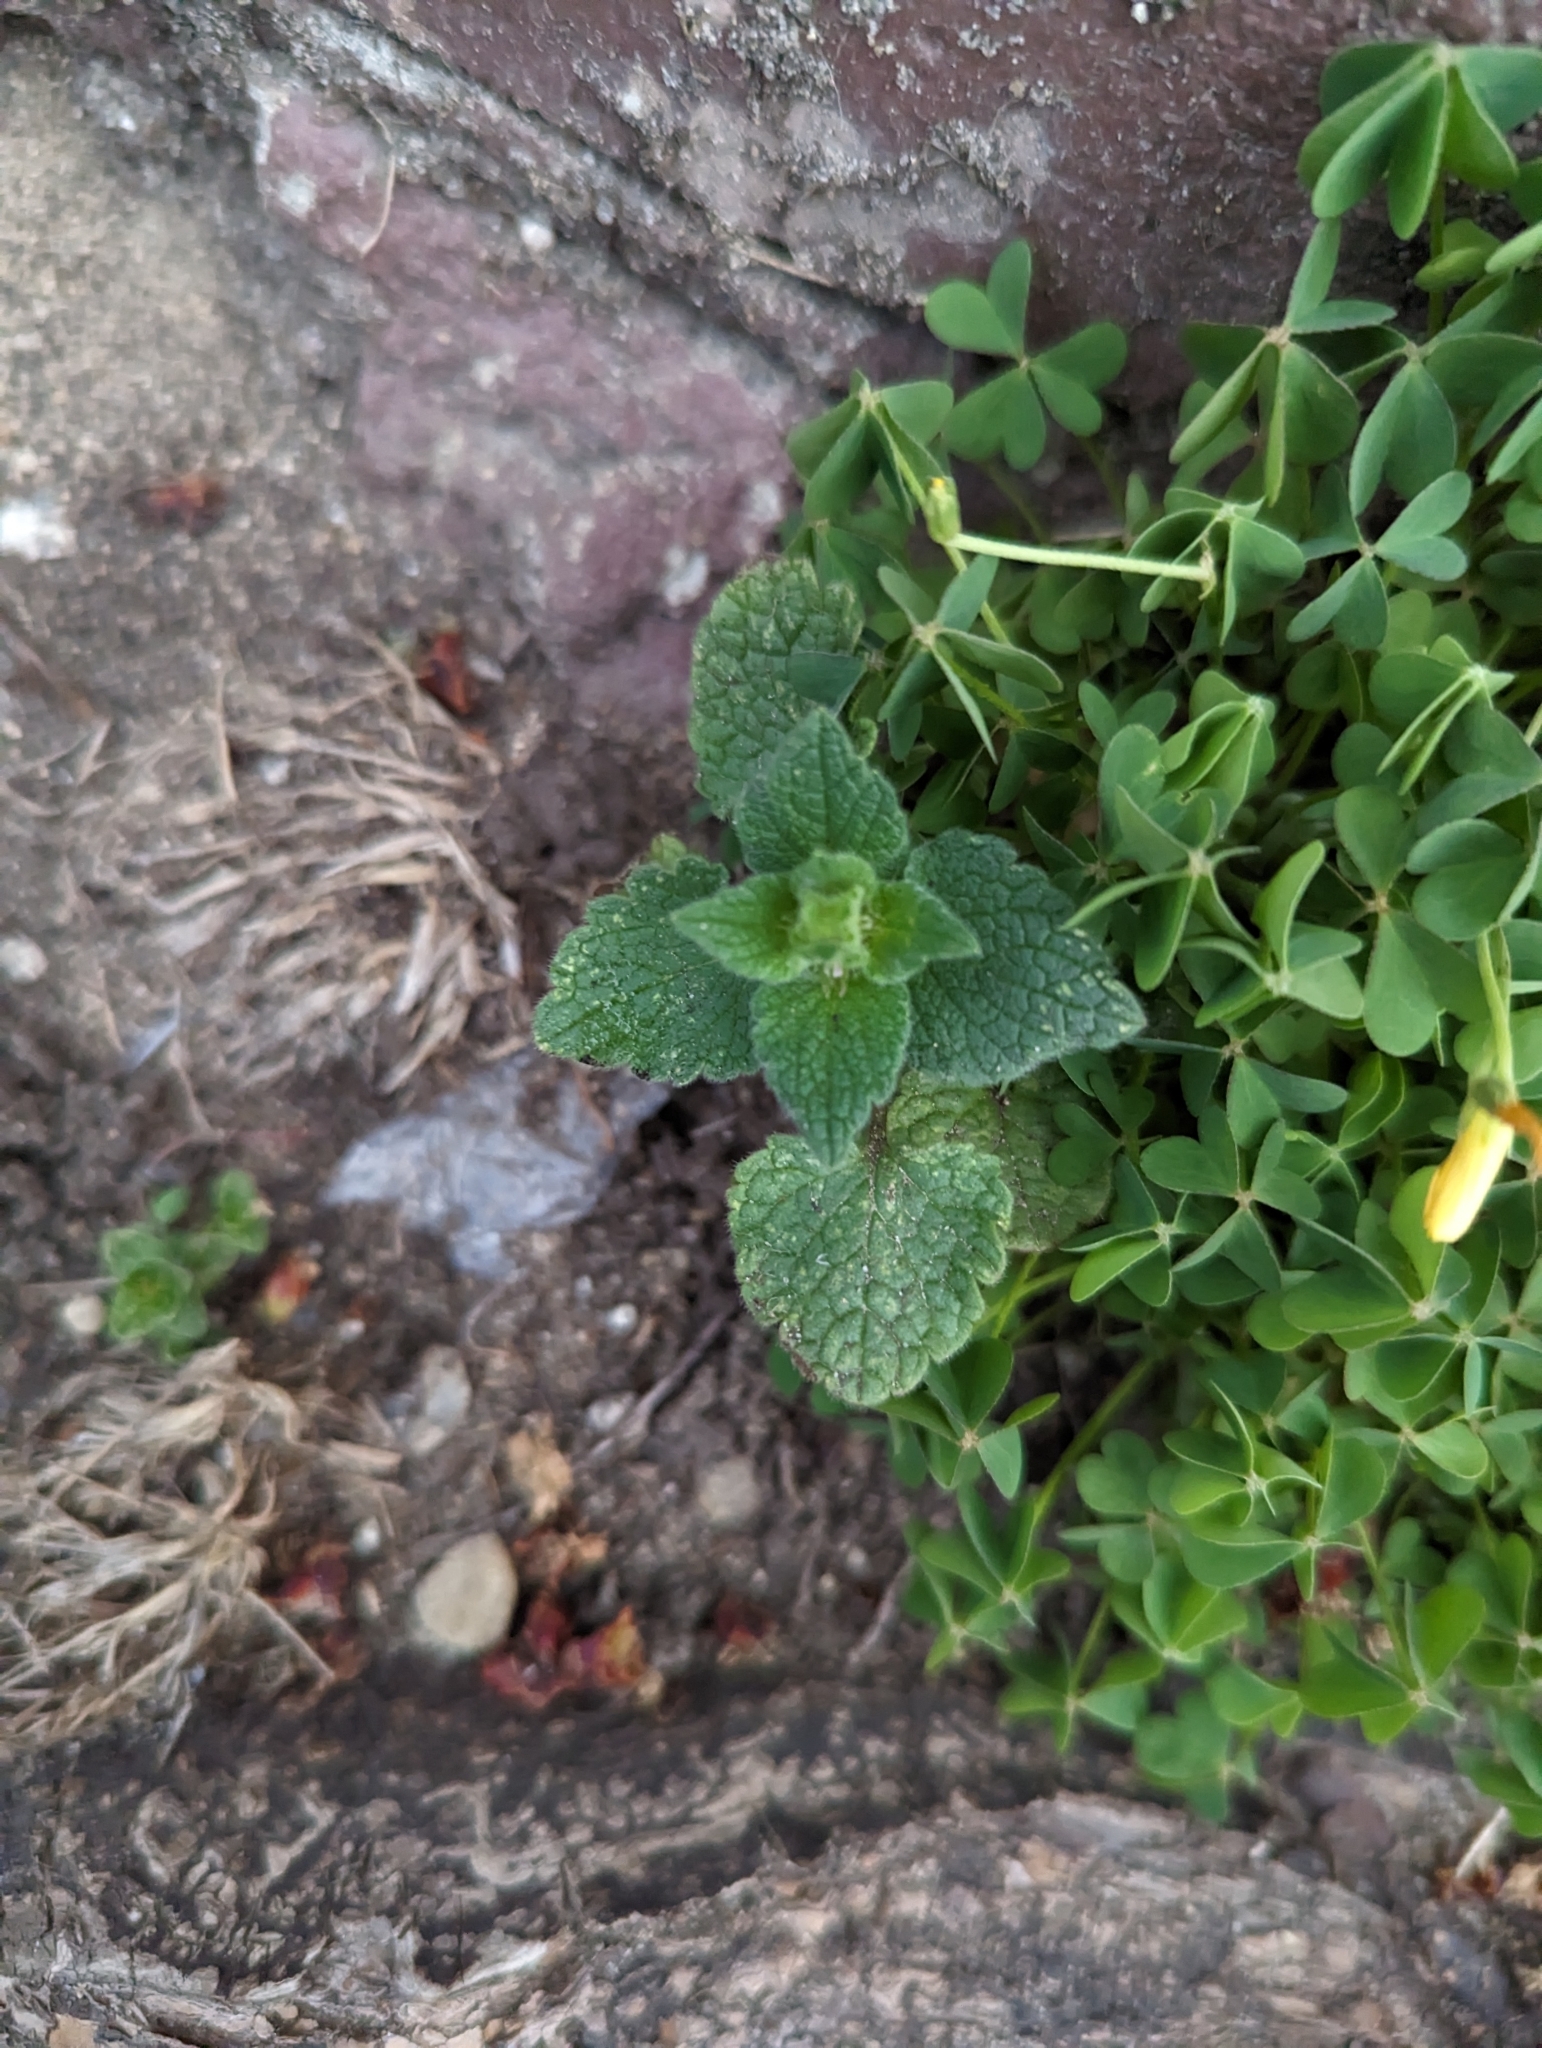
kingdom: Plantae
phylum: Tracheophyta
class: Magnoliopsida
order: Lamiales
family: Lamiaceae
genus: Lamium
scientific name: Lamium purpureum
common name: Red dead-nettle
